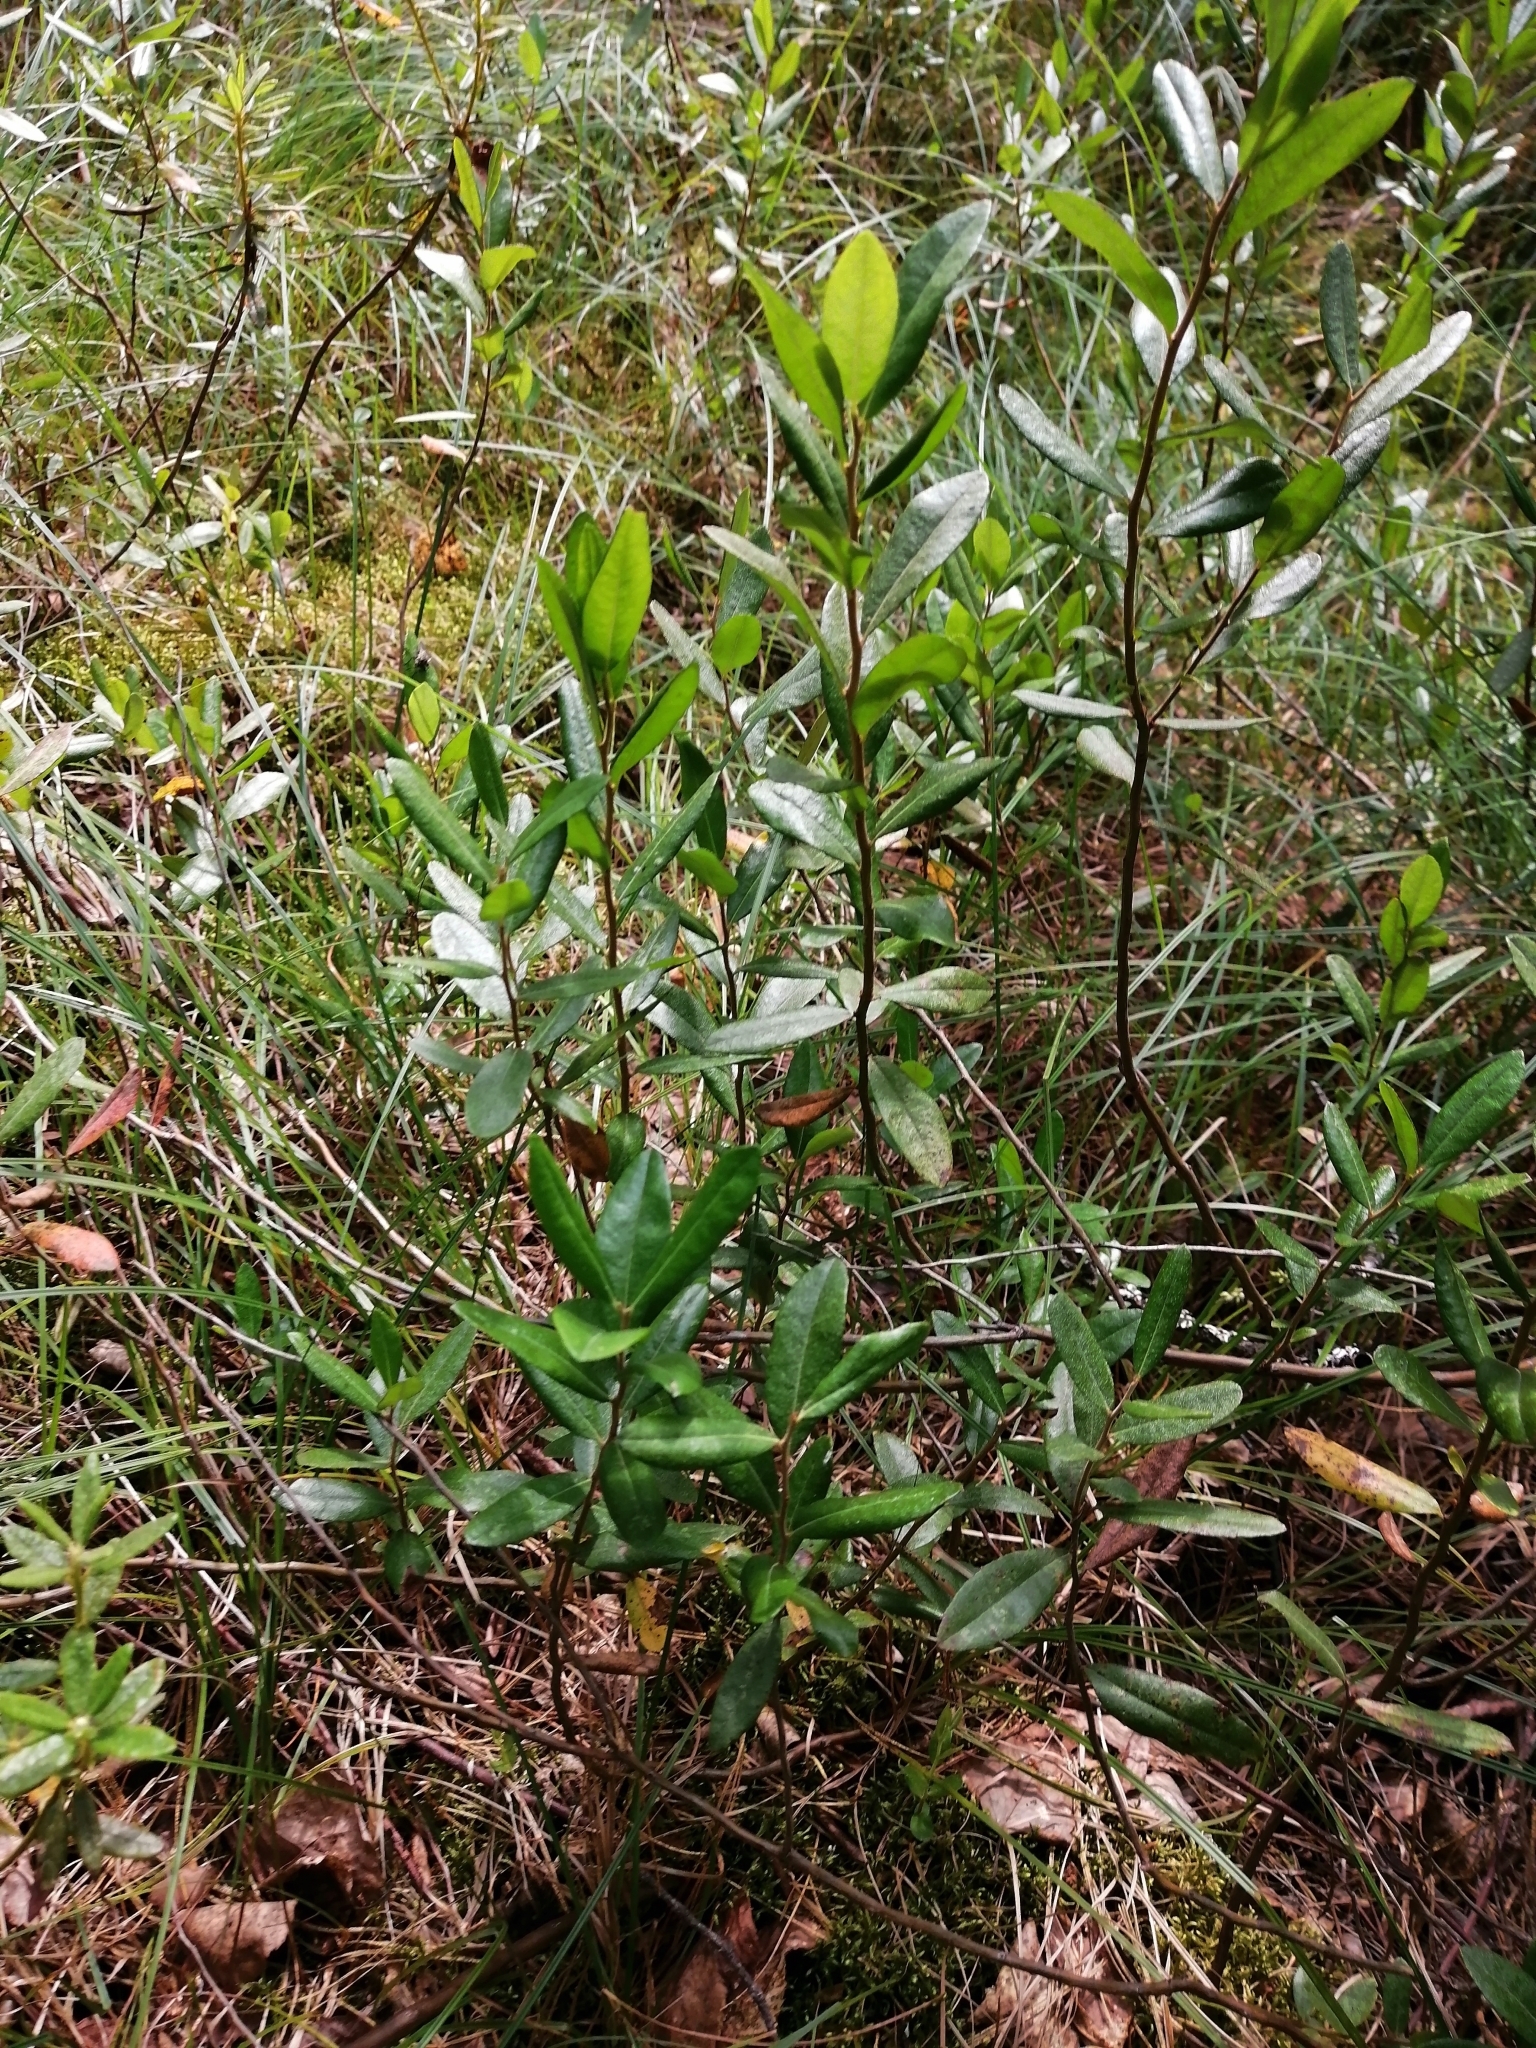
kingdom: Plantae
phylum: Tracheophyta
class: Magnoliopsida
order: Ericales
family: Ericaceae
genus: Chamaedaphne
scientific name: Chamaedaphne calyculata
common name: Leatherleaf
